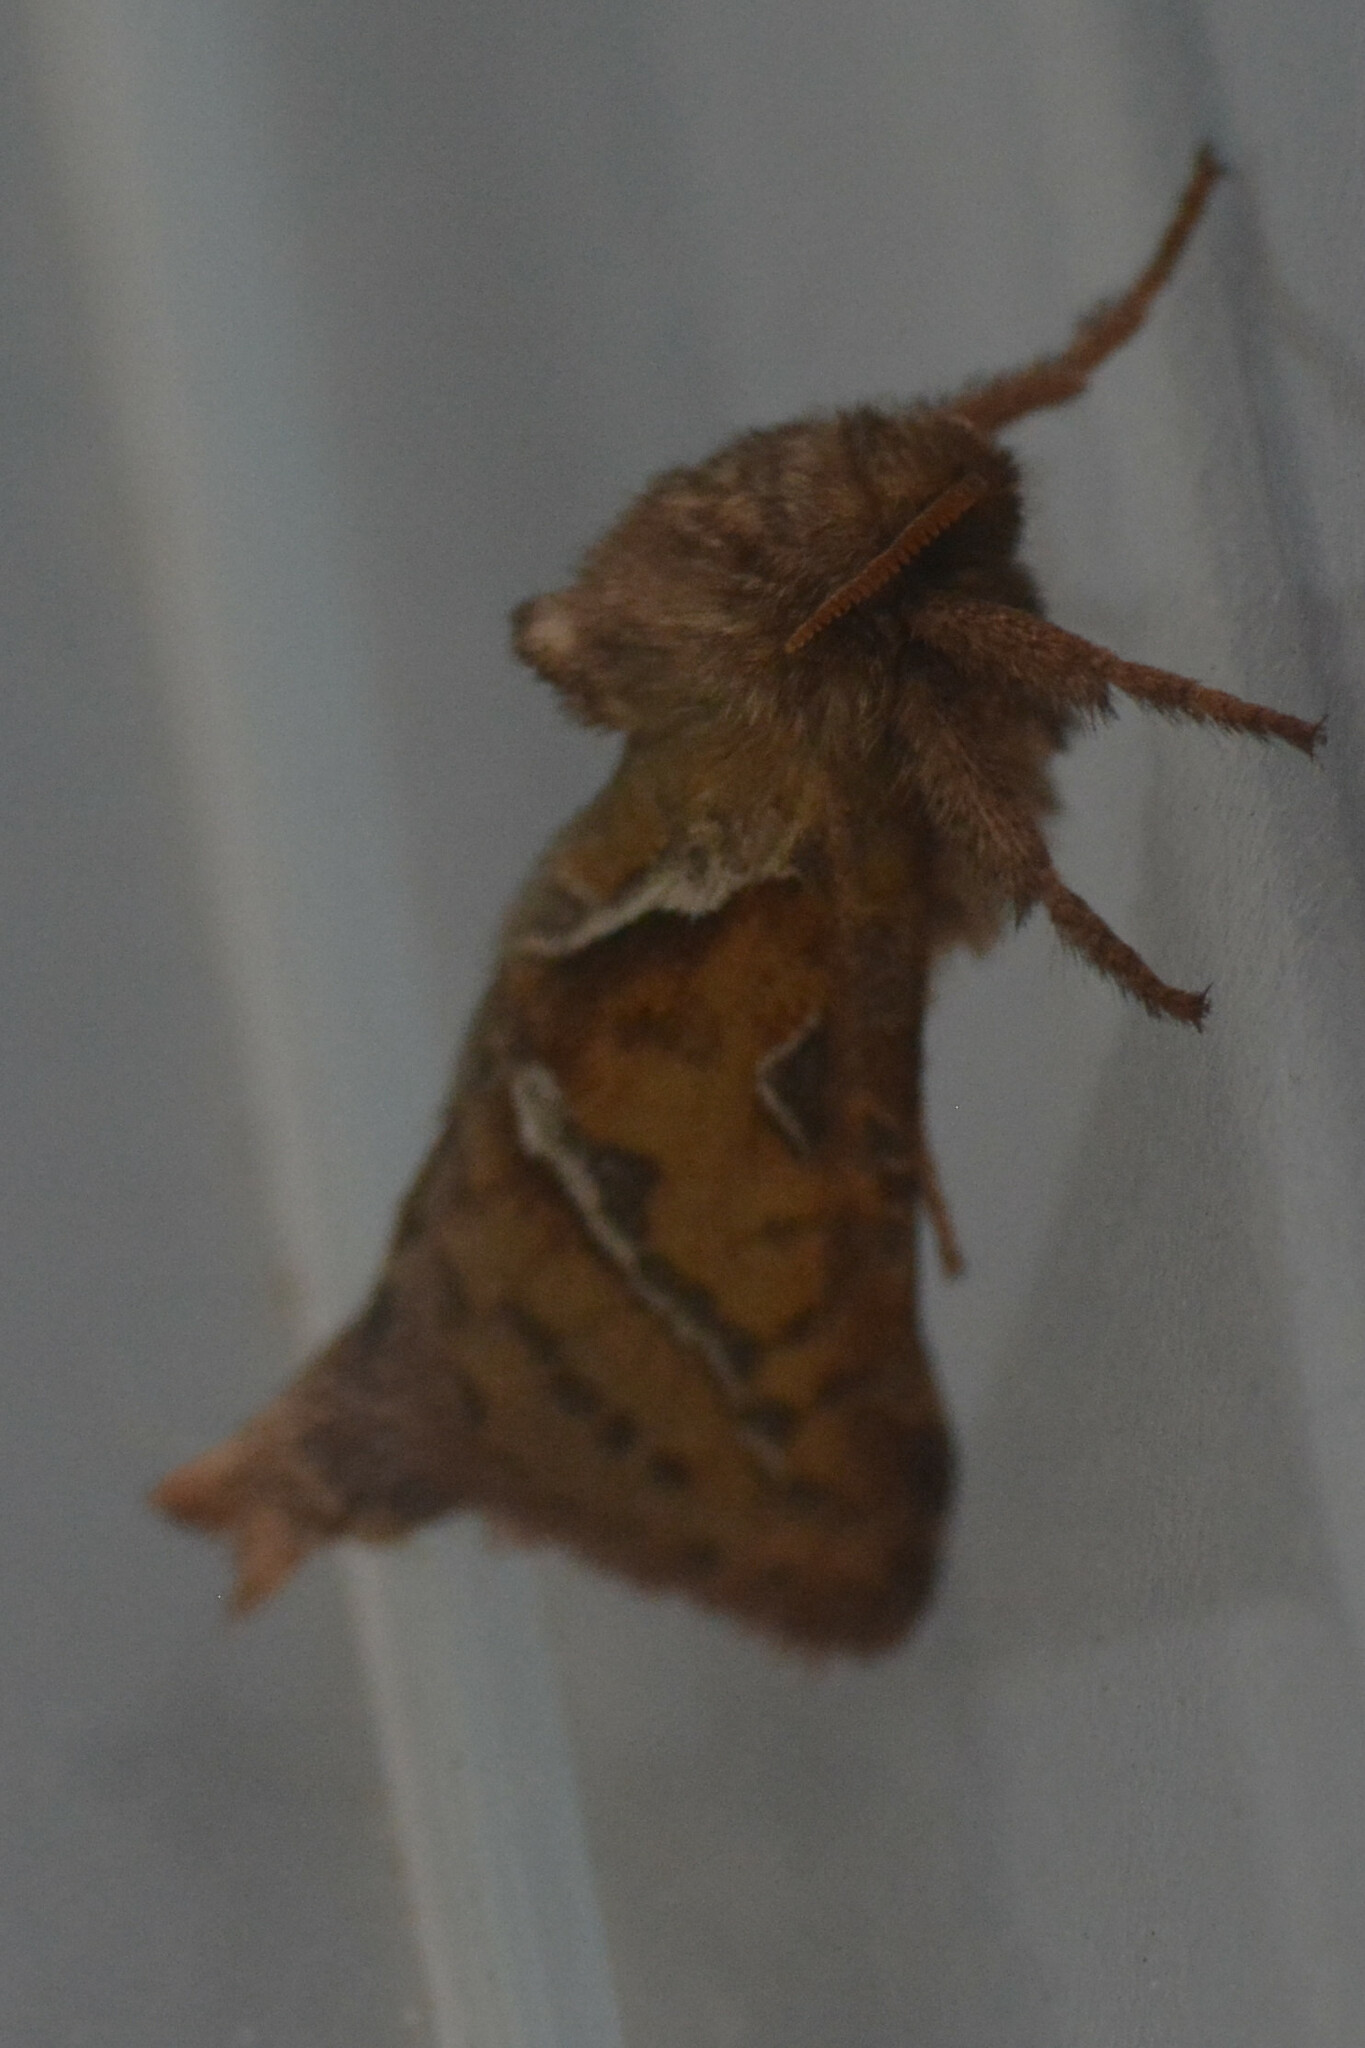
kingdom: Animalia
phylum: Arthropoda
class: Insecta
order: Lepidoptera
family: Hepialidae
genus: Triodia
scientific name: Triodia sylvina
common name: Orange swift
